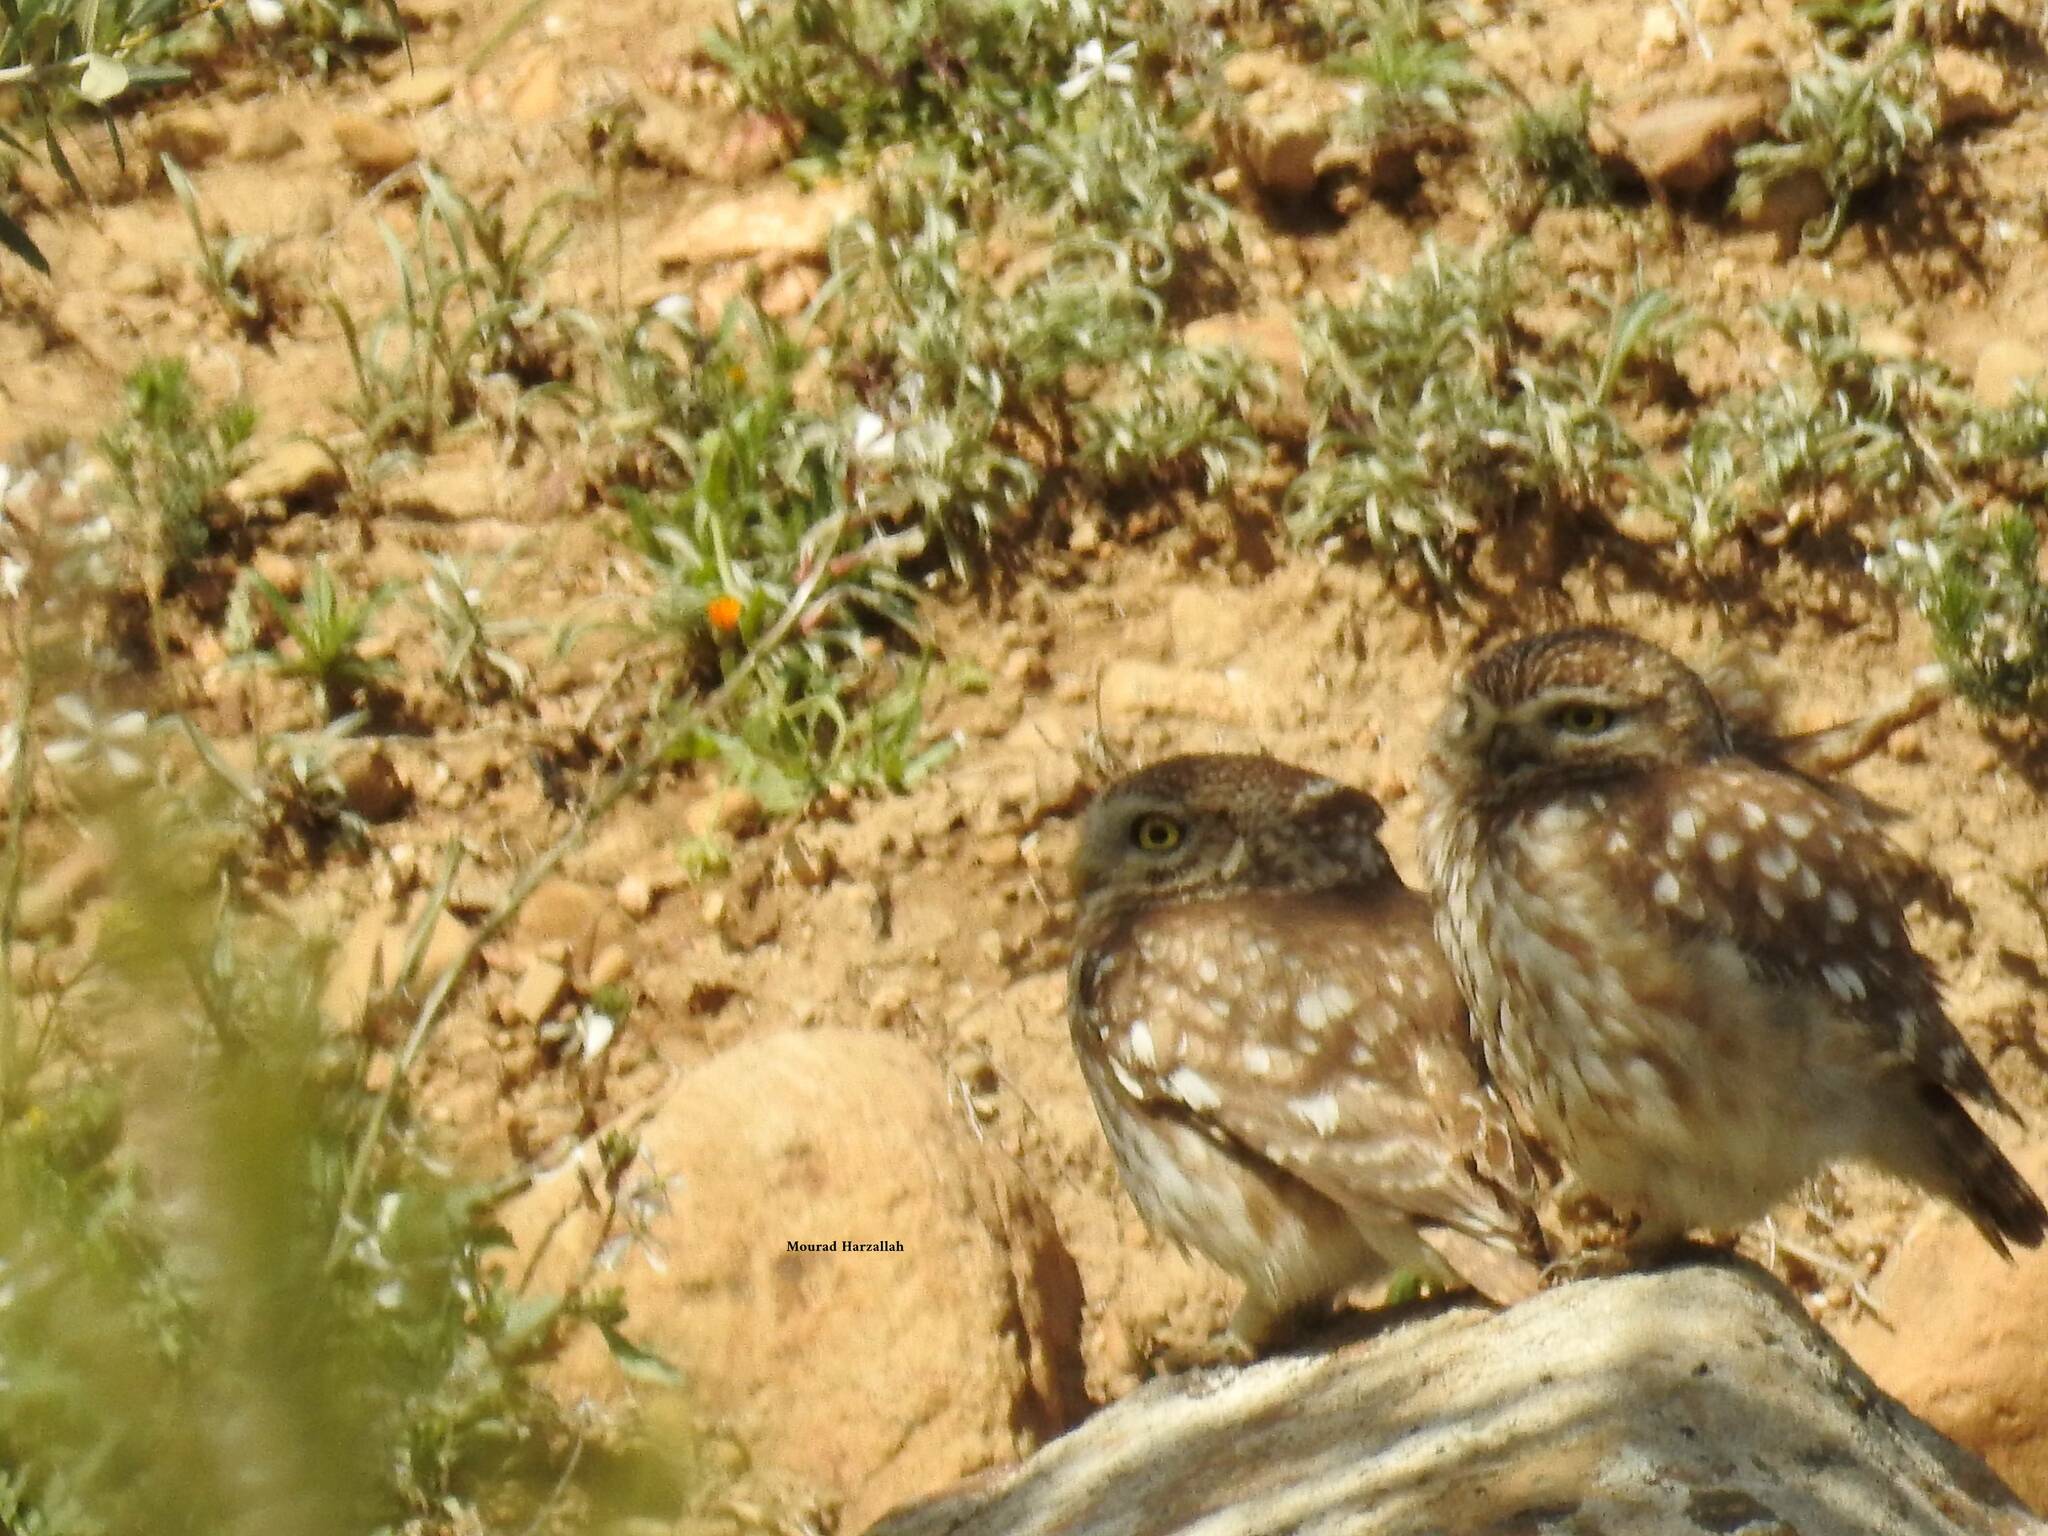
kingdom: Animalia
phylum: Chordata
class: Aves
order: Strigiformes
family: Strigidae
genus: Athene
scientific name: Athene noctua
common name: Little owl
